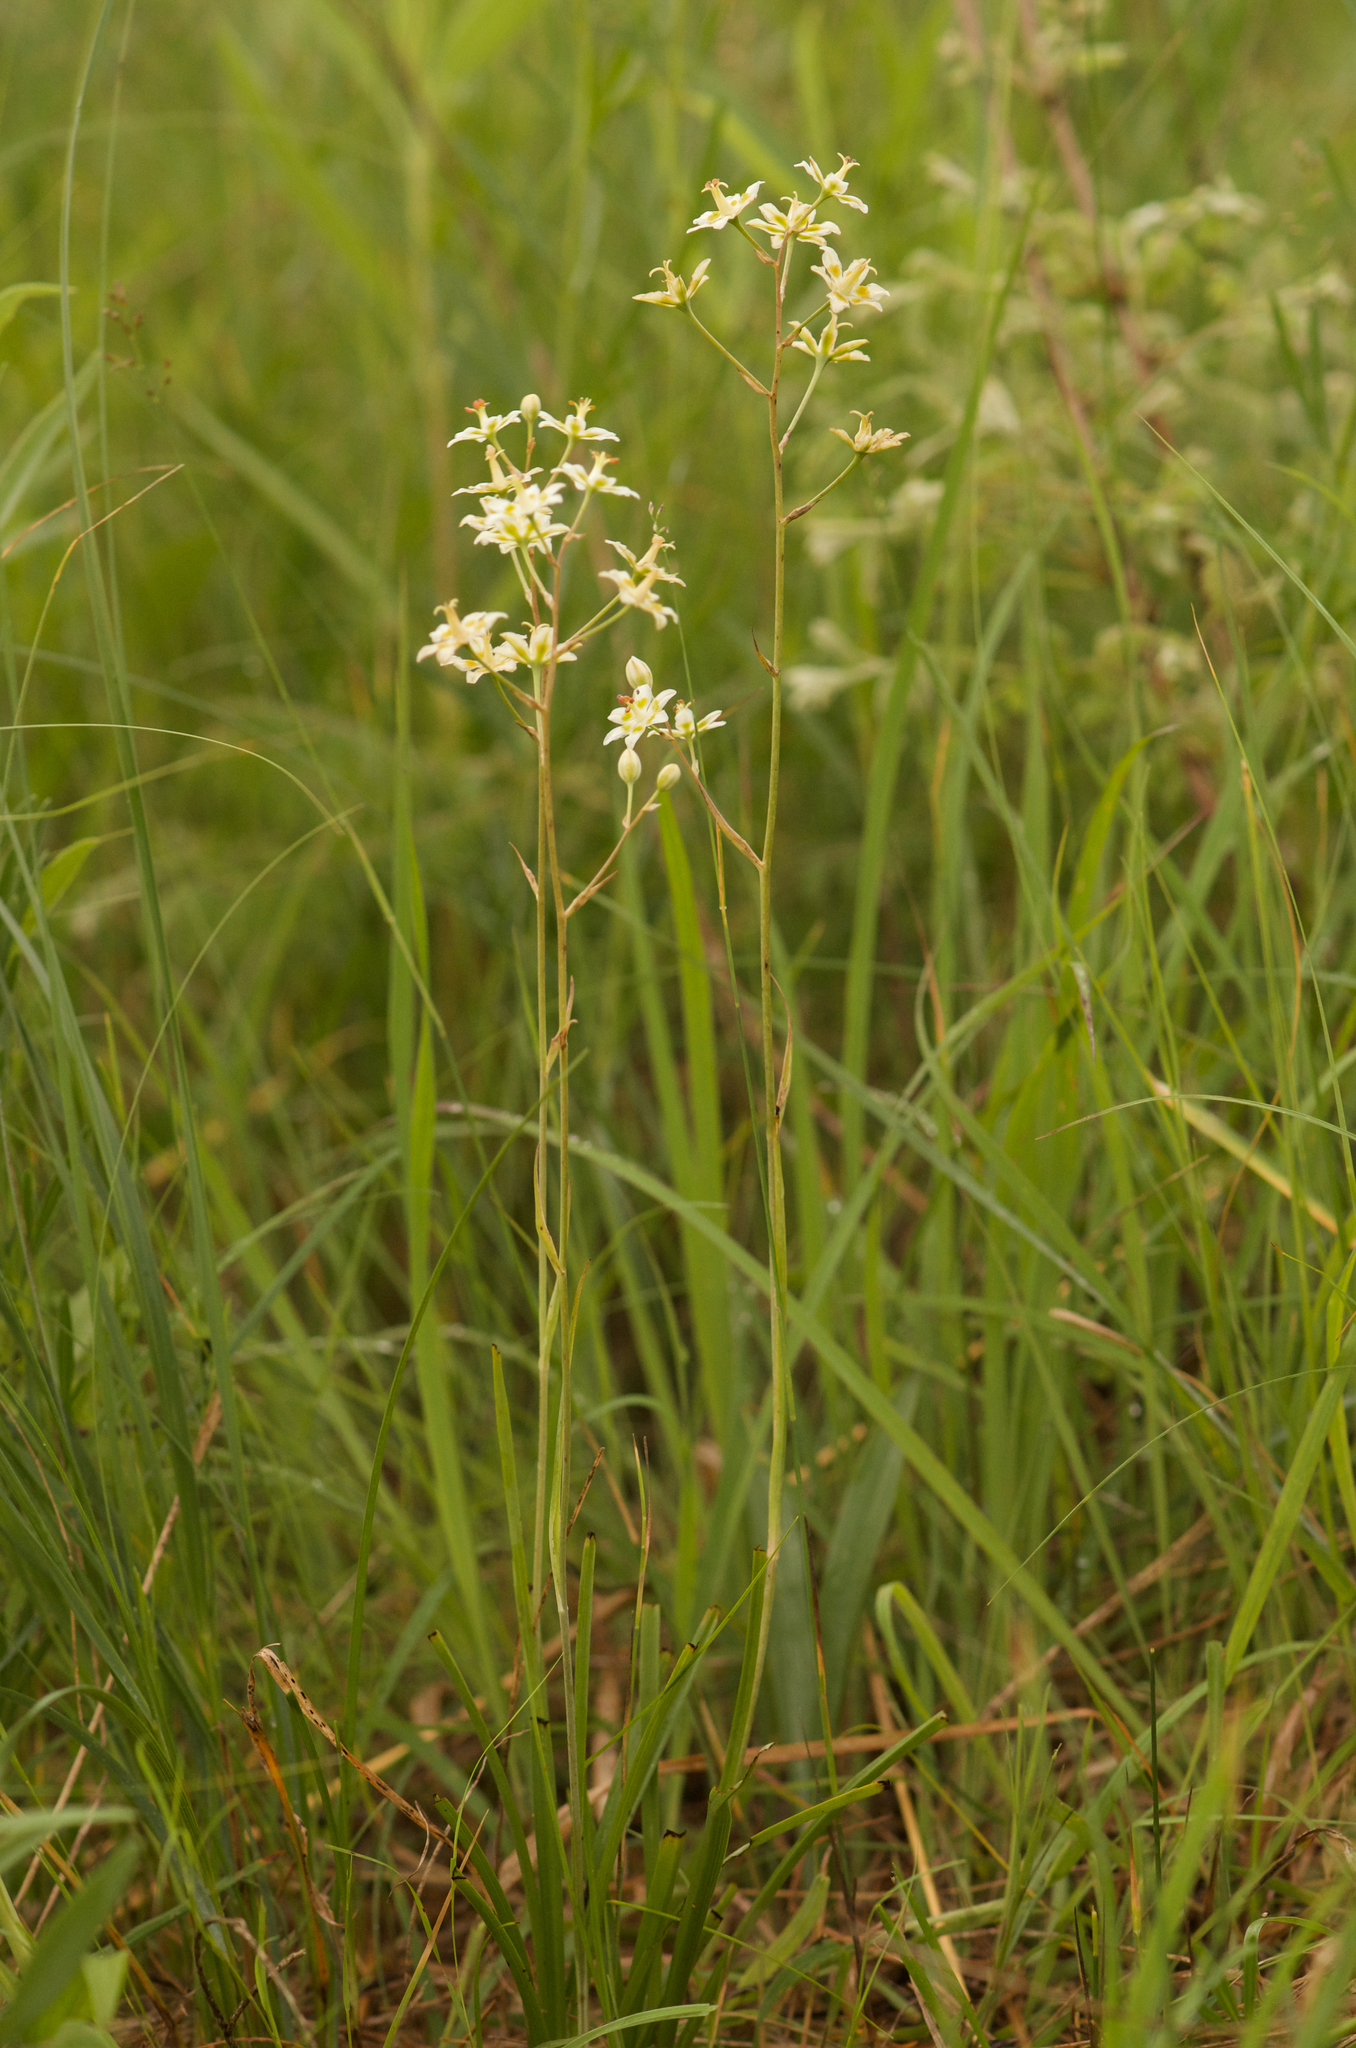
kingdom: Plantae
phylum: Tracheophyta
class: Liliopsida
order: Liliales
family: Melanthiaceae
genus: Anticlea
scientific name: Anticlea elegans
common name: Mountain death camas
